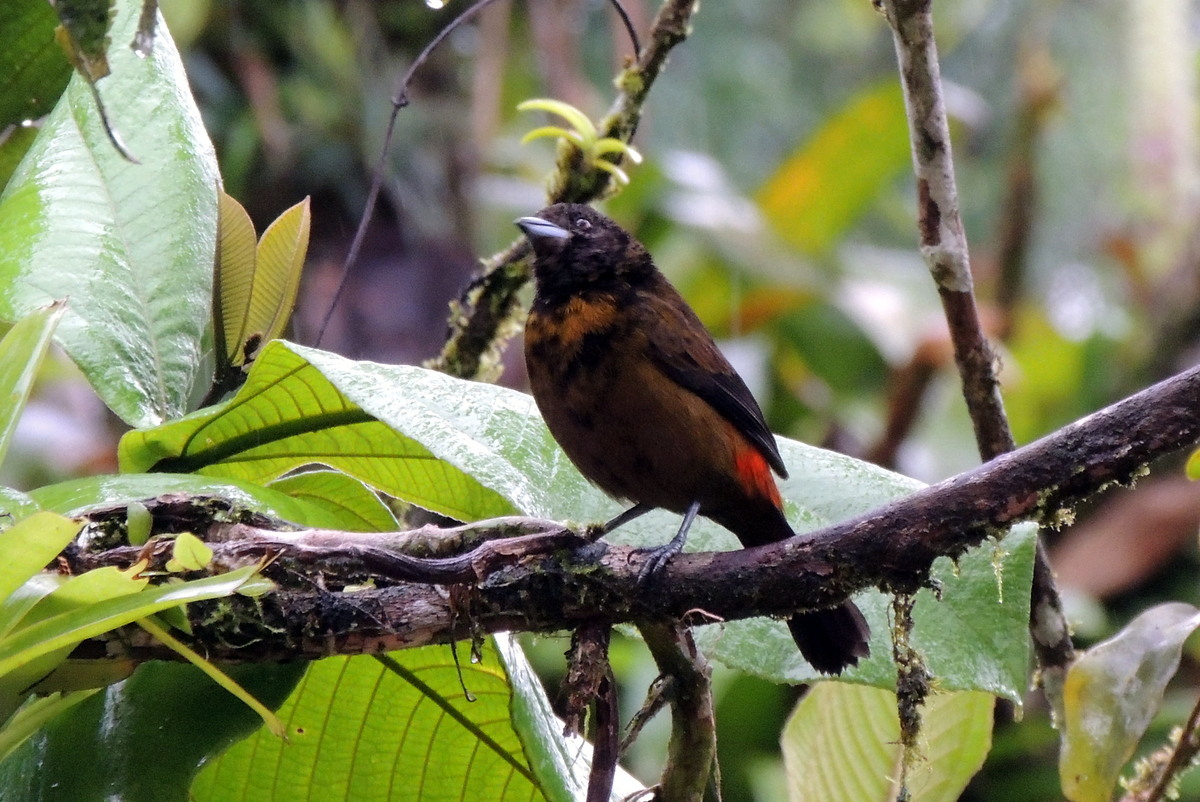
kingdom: Animalia
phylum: Chordata
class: Aves
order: Passeriformes
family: Thraupidae
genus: Ramphocelus
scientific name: Ramphocelus passerinii
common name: Passerini's tanager
